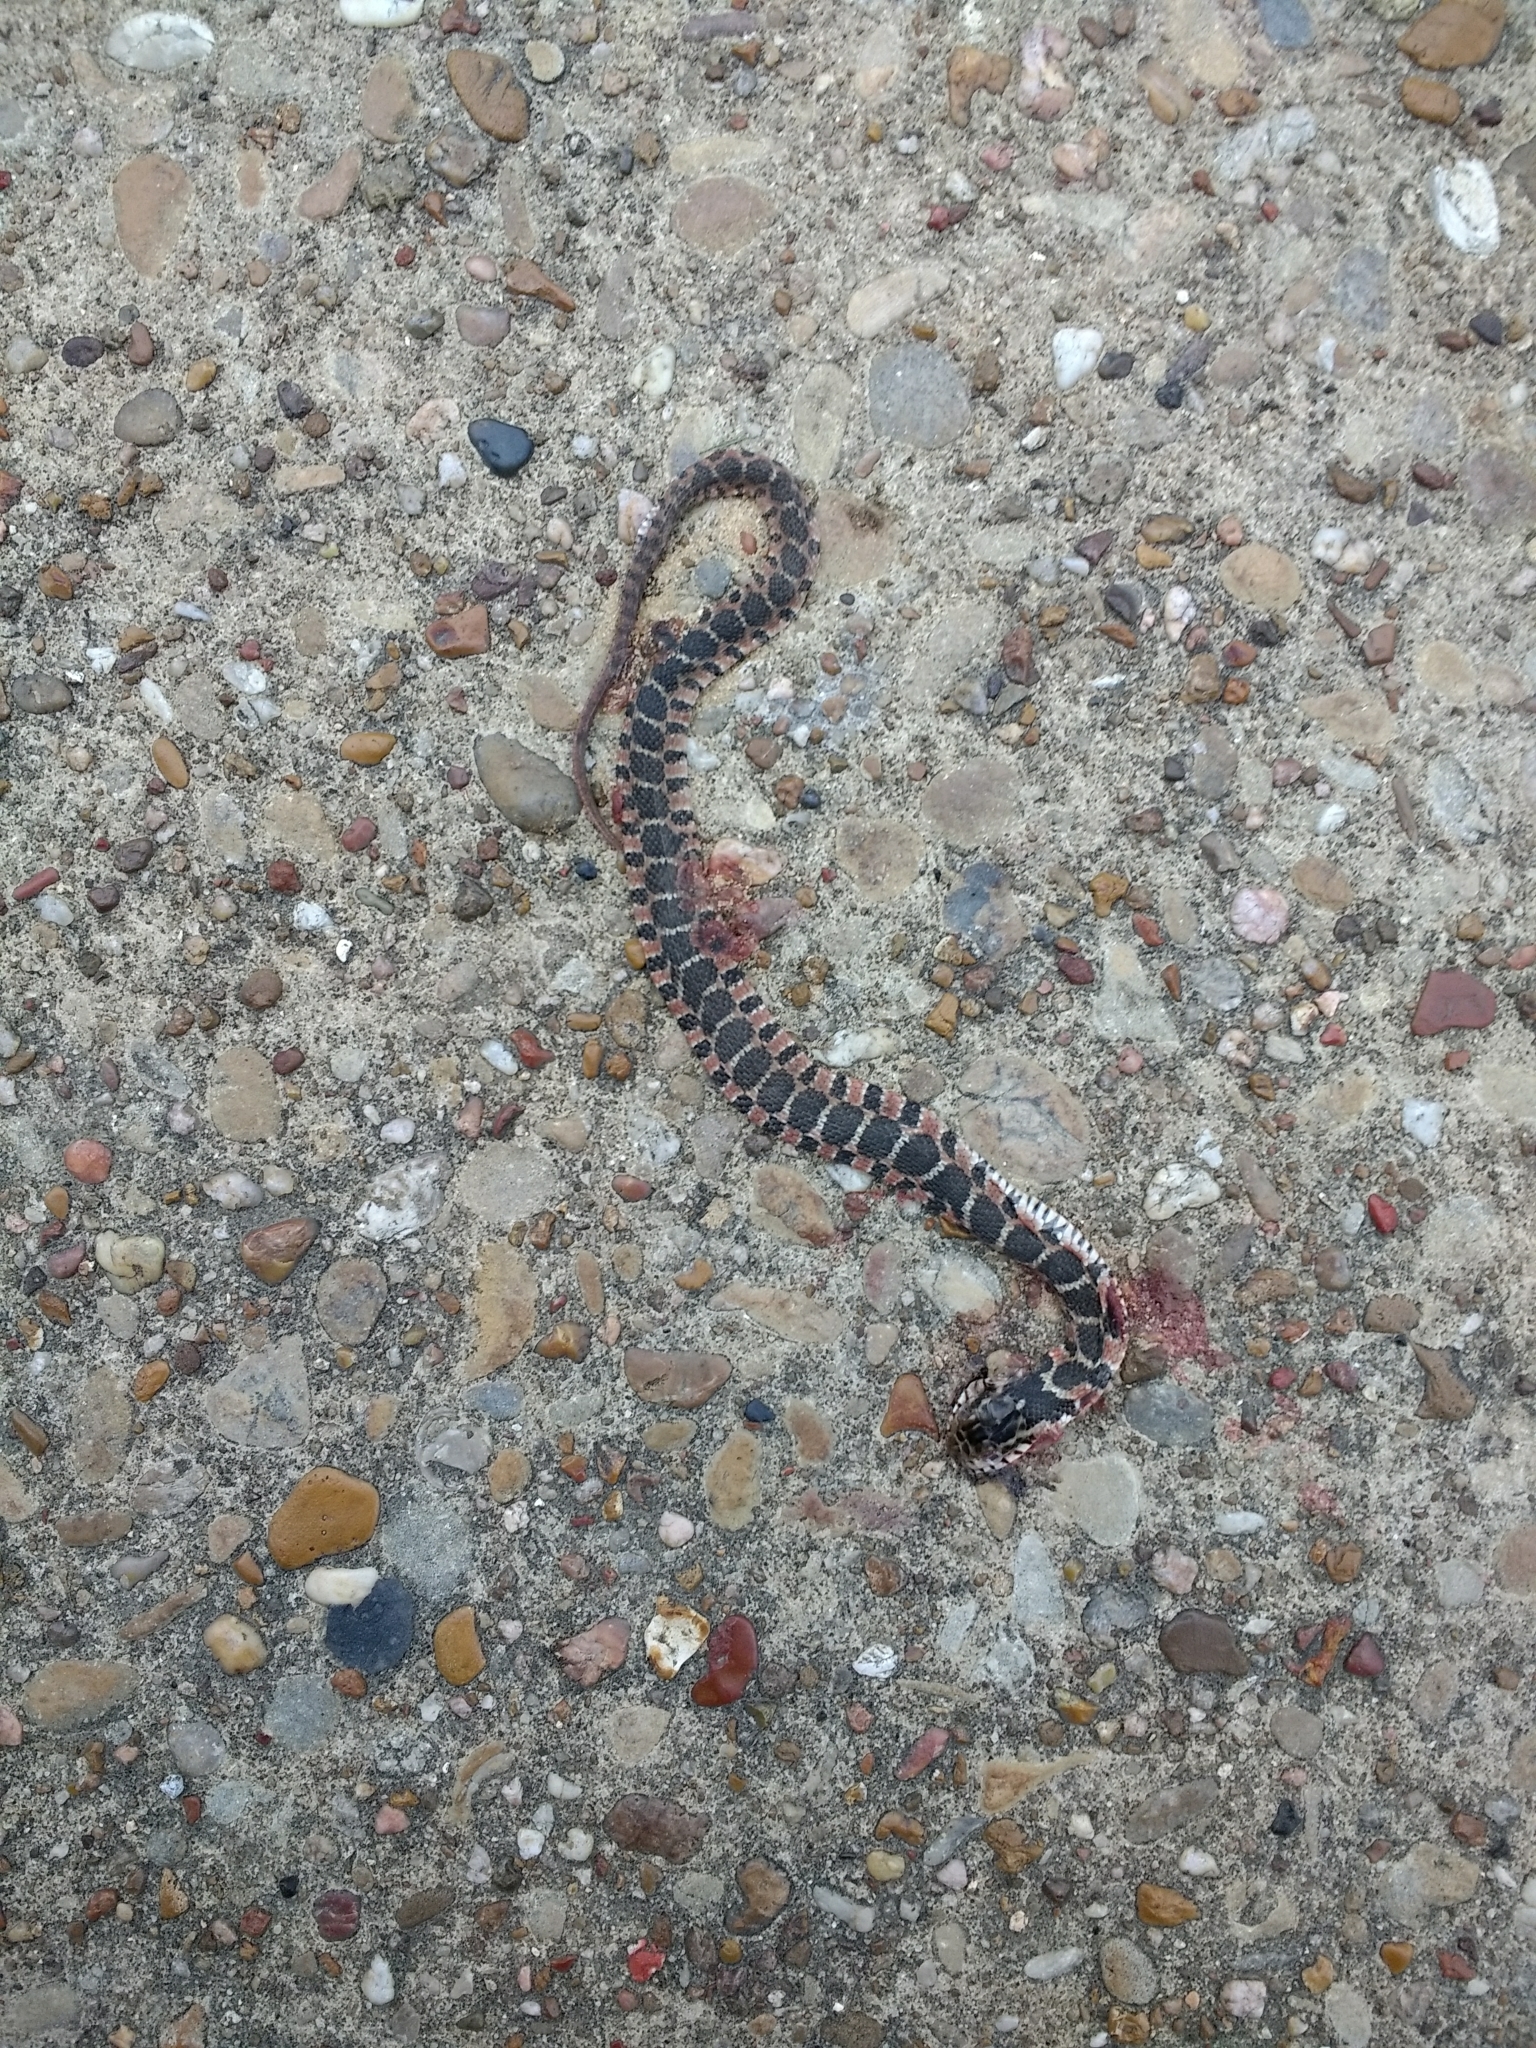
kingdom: Animalia
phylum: Chordata
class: Squamata
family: Colubridae
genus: Nerodia
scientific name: Nerodia erythrogaster
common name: Plainbelly water snake
